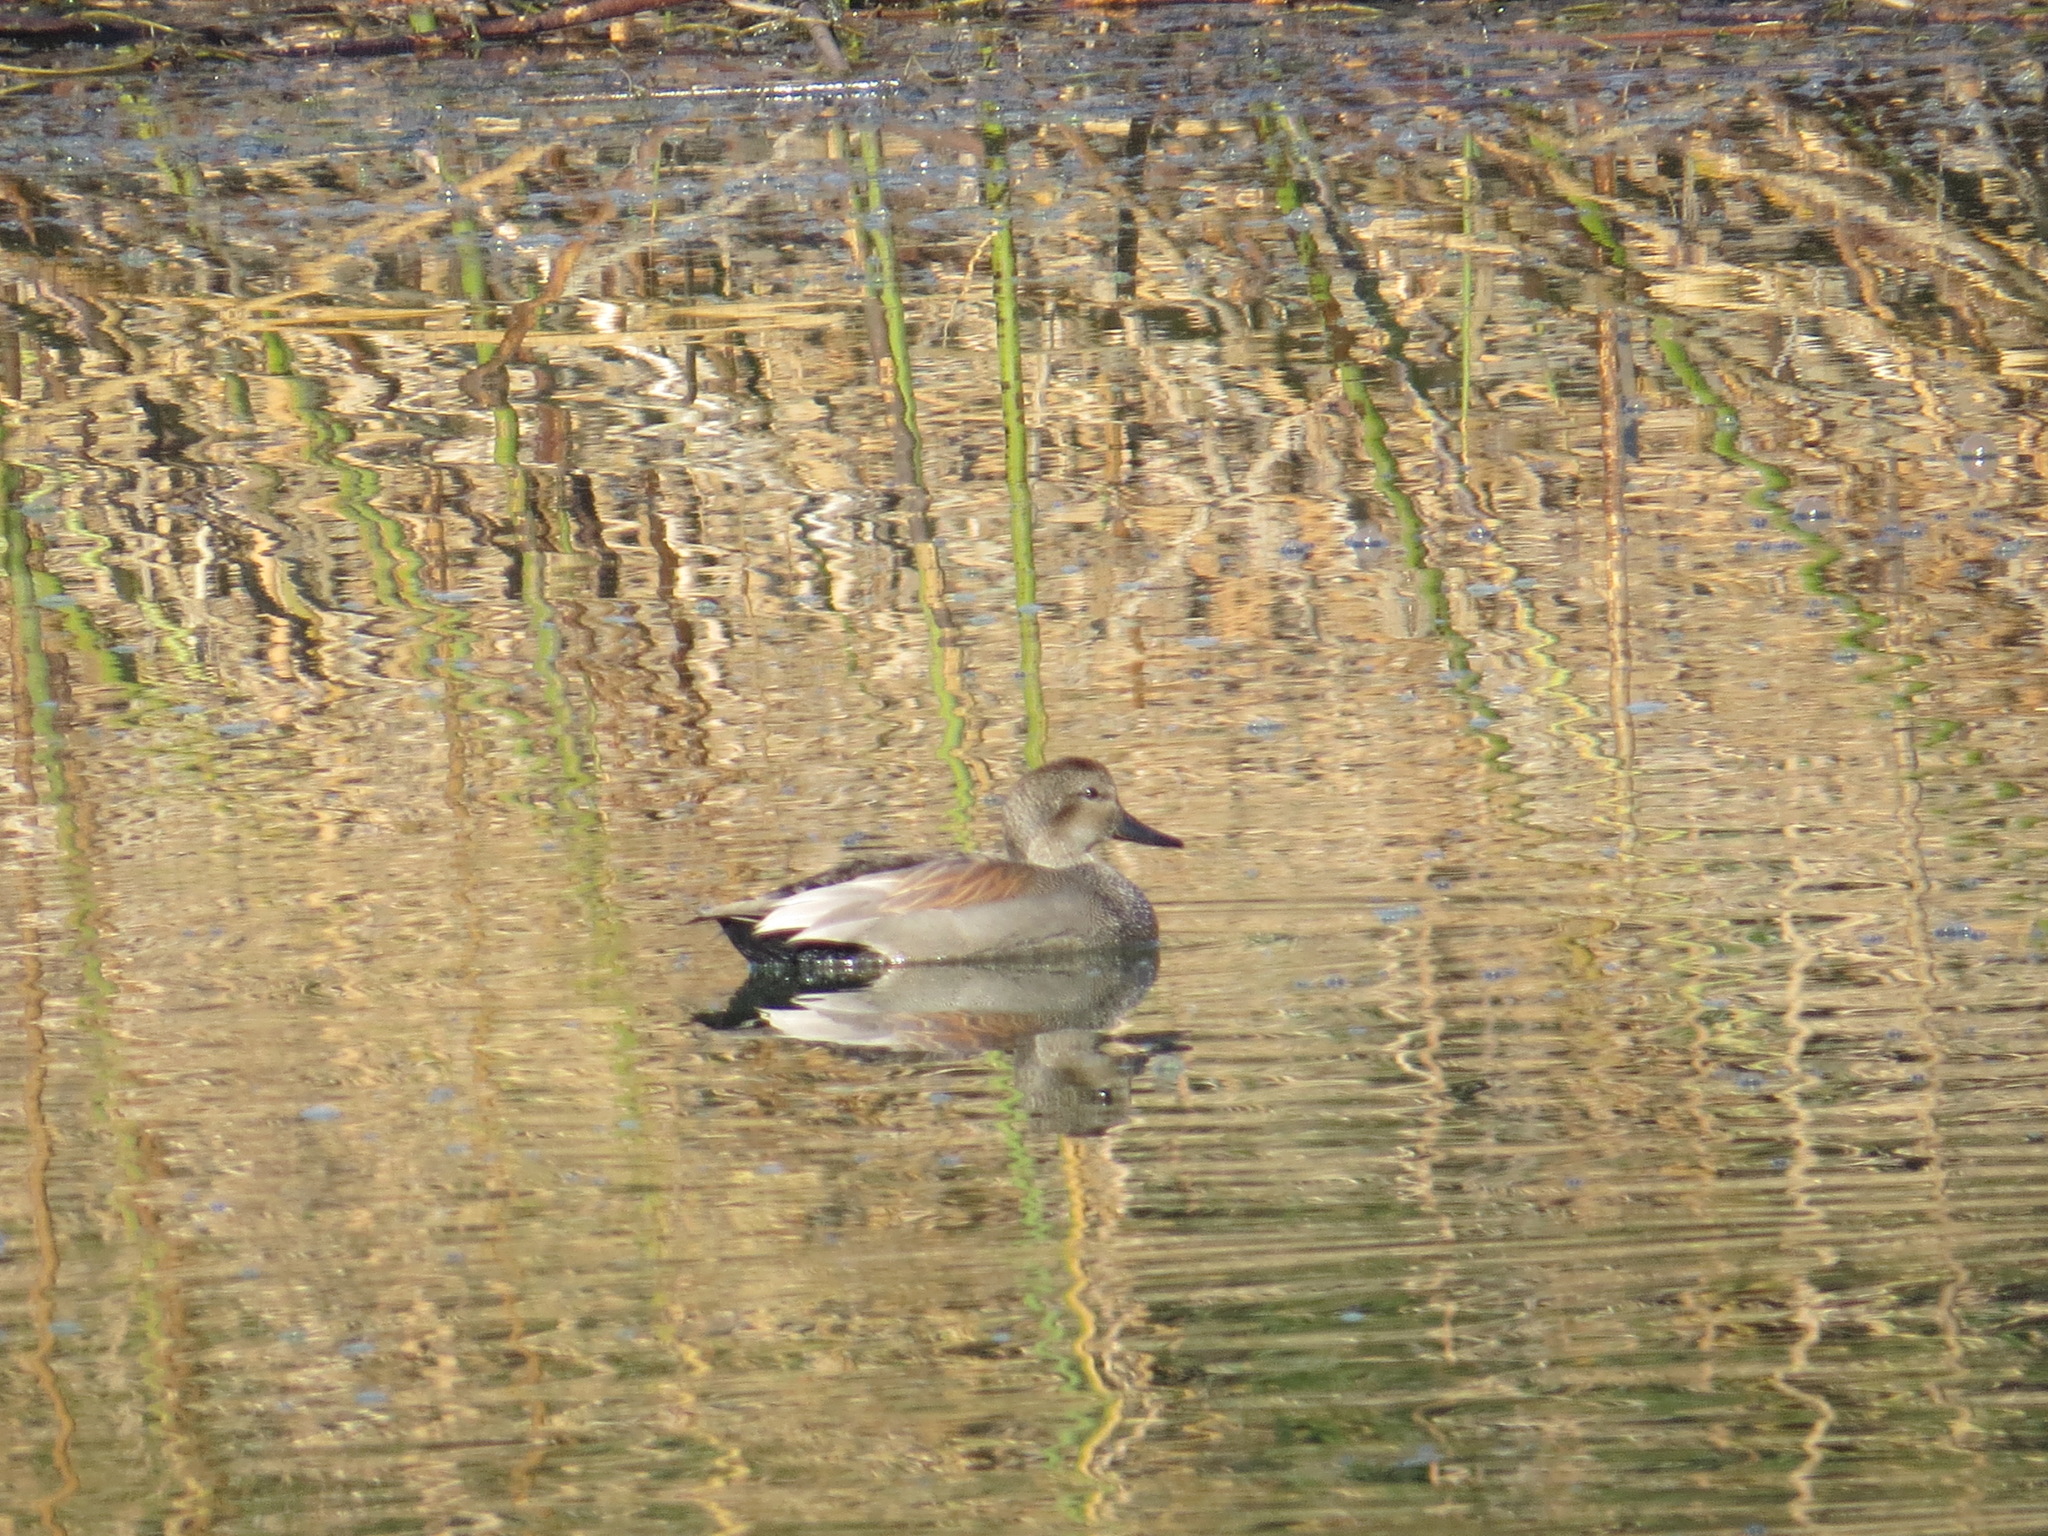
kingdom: Animalia
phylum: Chordata
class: Aves
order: Anseriformes
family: Anatidae
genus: Mareca
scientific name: Mareca strepera
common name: Gadwall
